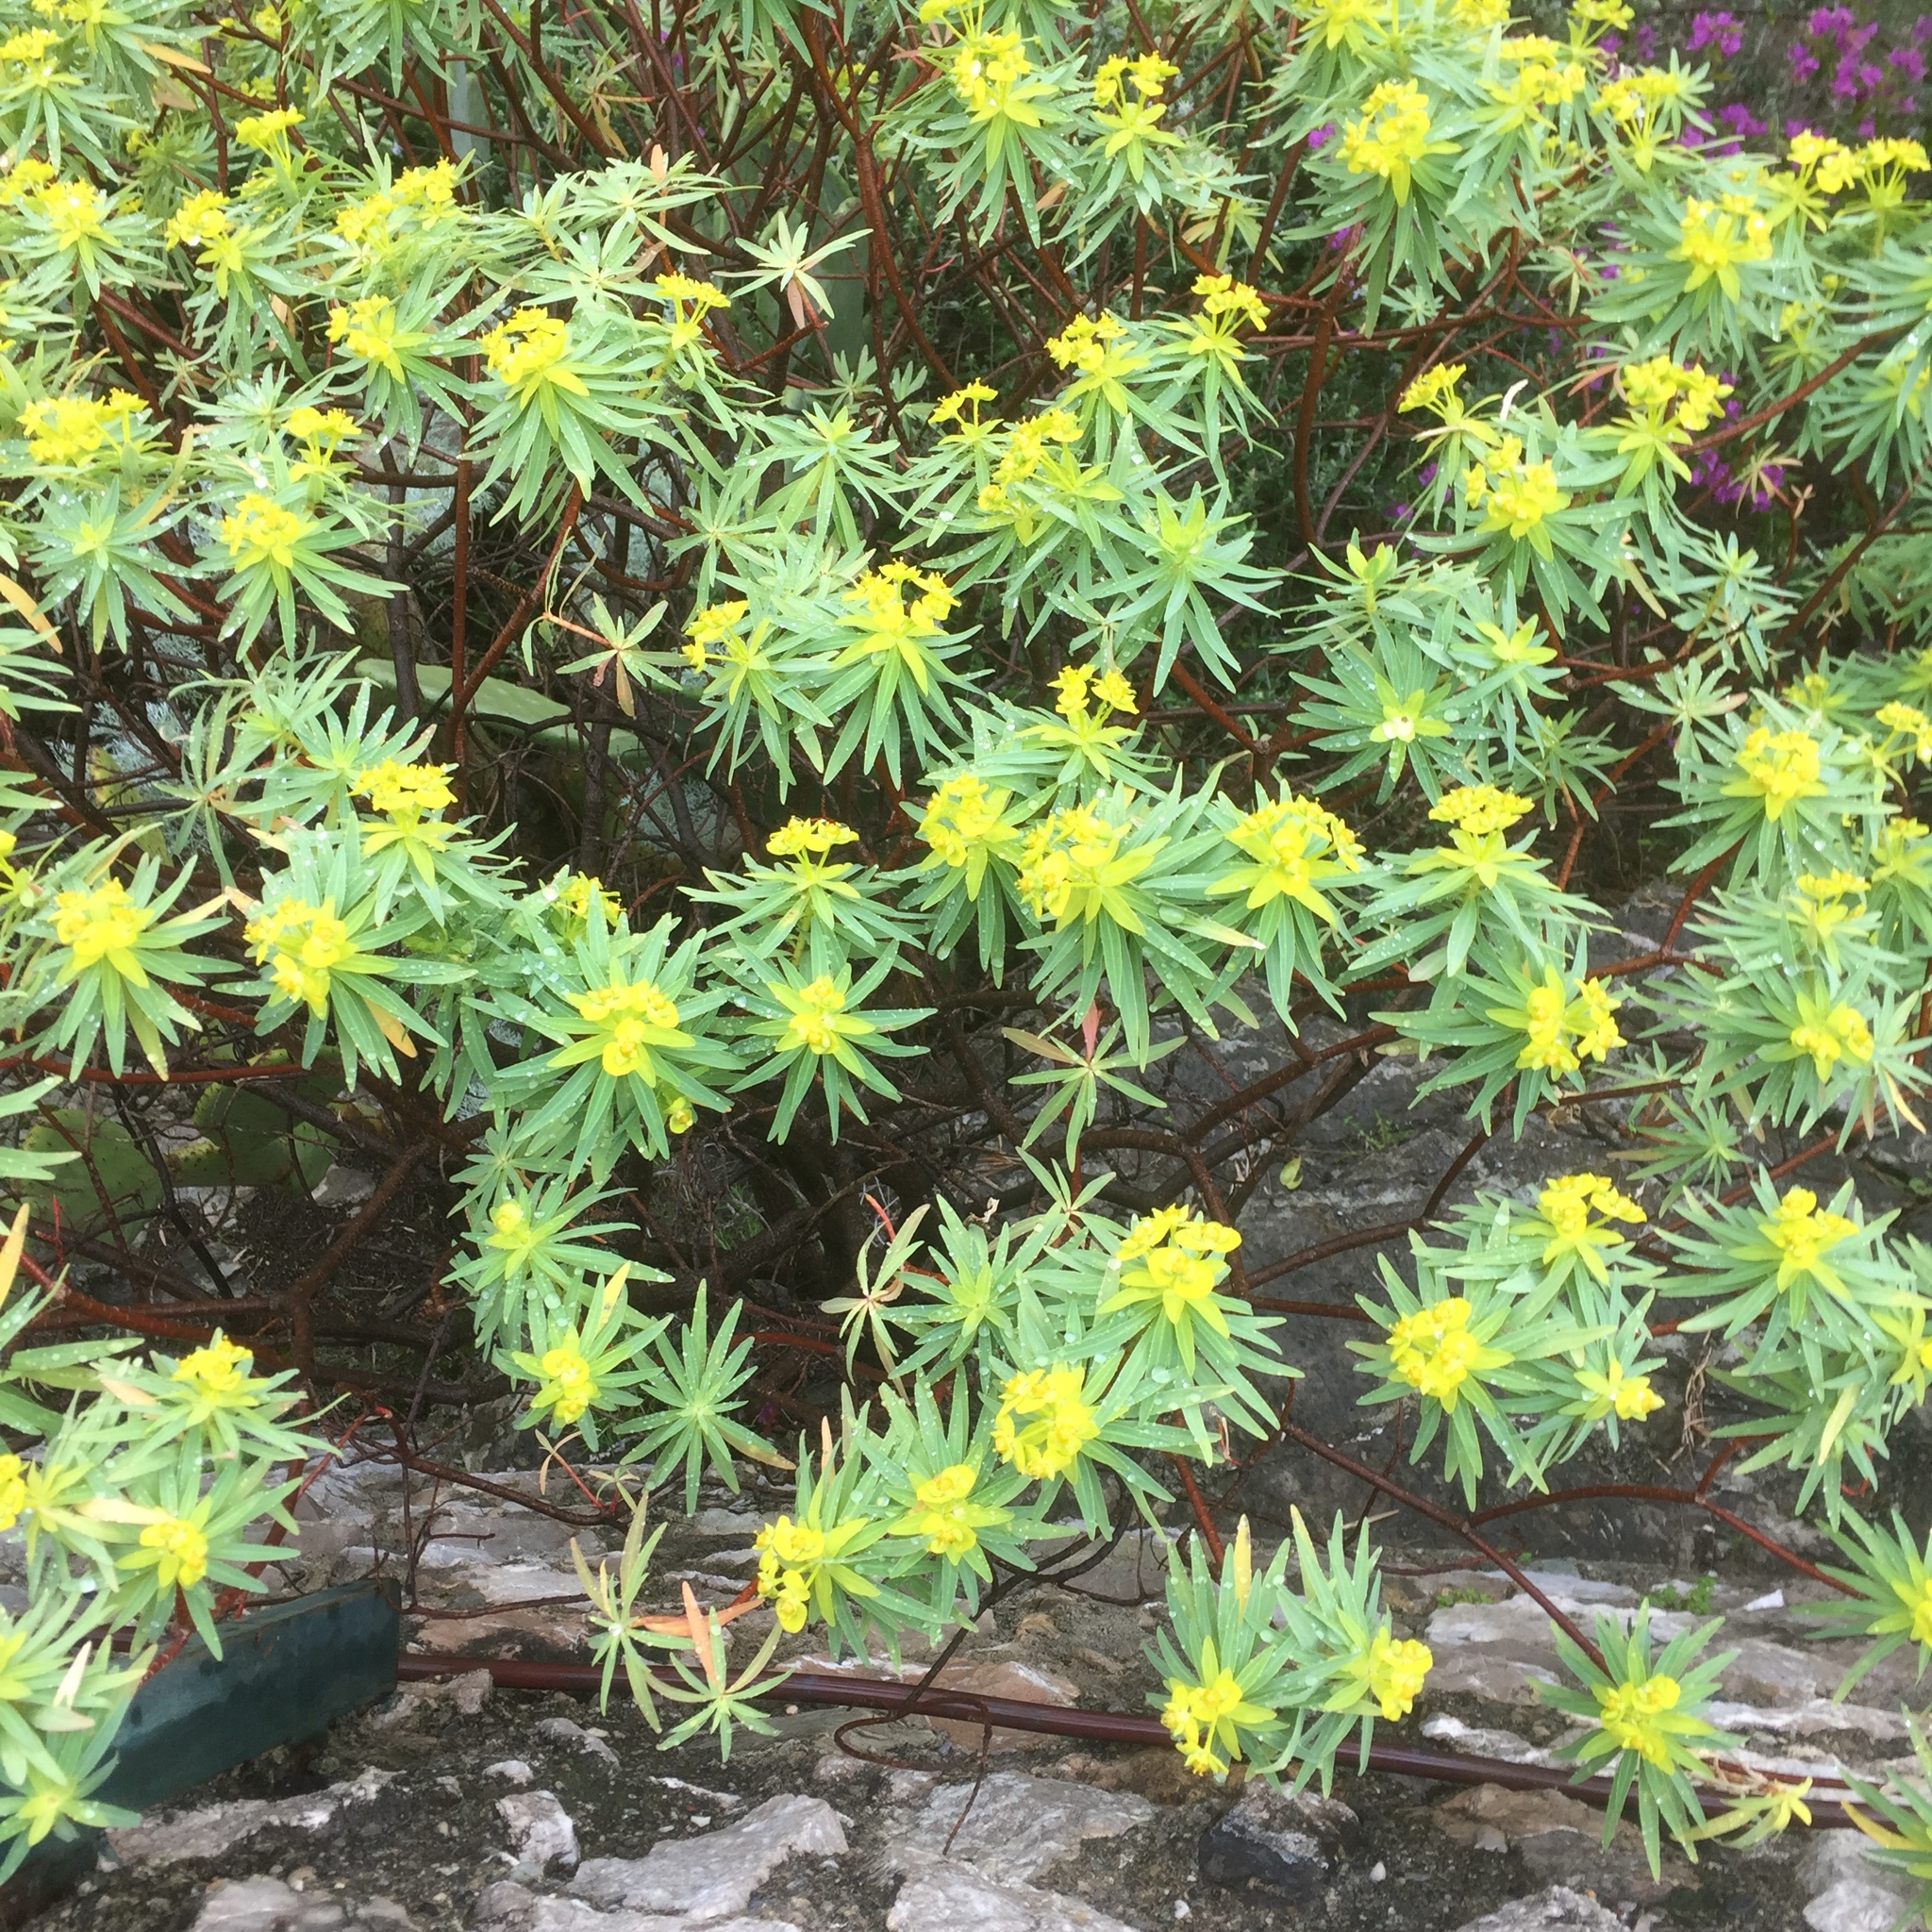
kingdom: Plantae
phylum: Tracheophyta
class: Magnoliopsida
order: Malpighiales
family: Euphorbiaceae
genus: Euphorbia
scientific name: Euphorbia dendroides
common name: Tree spurge
